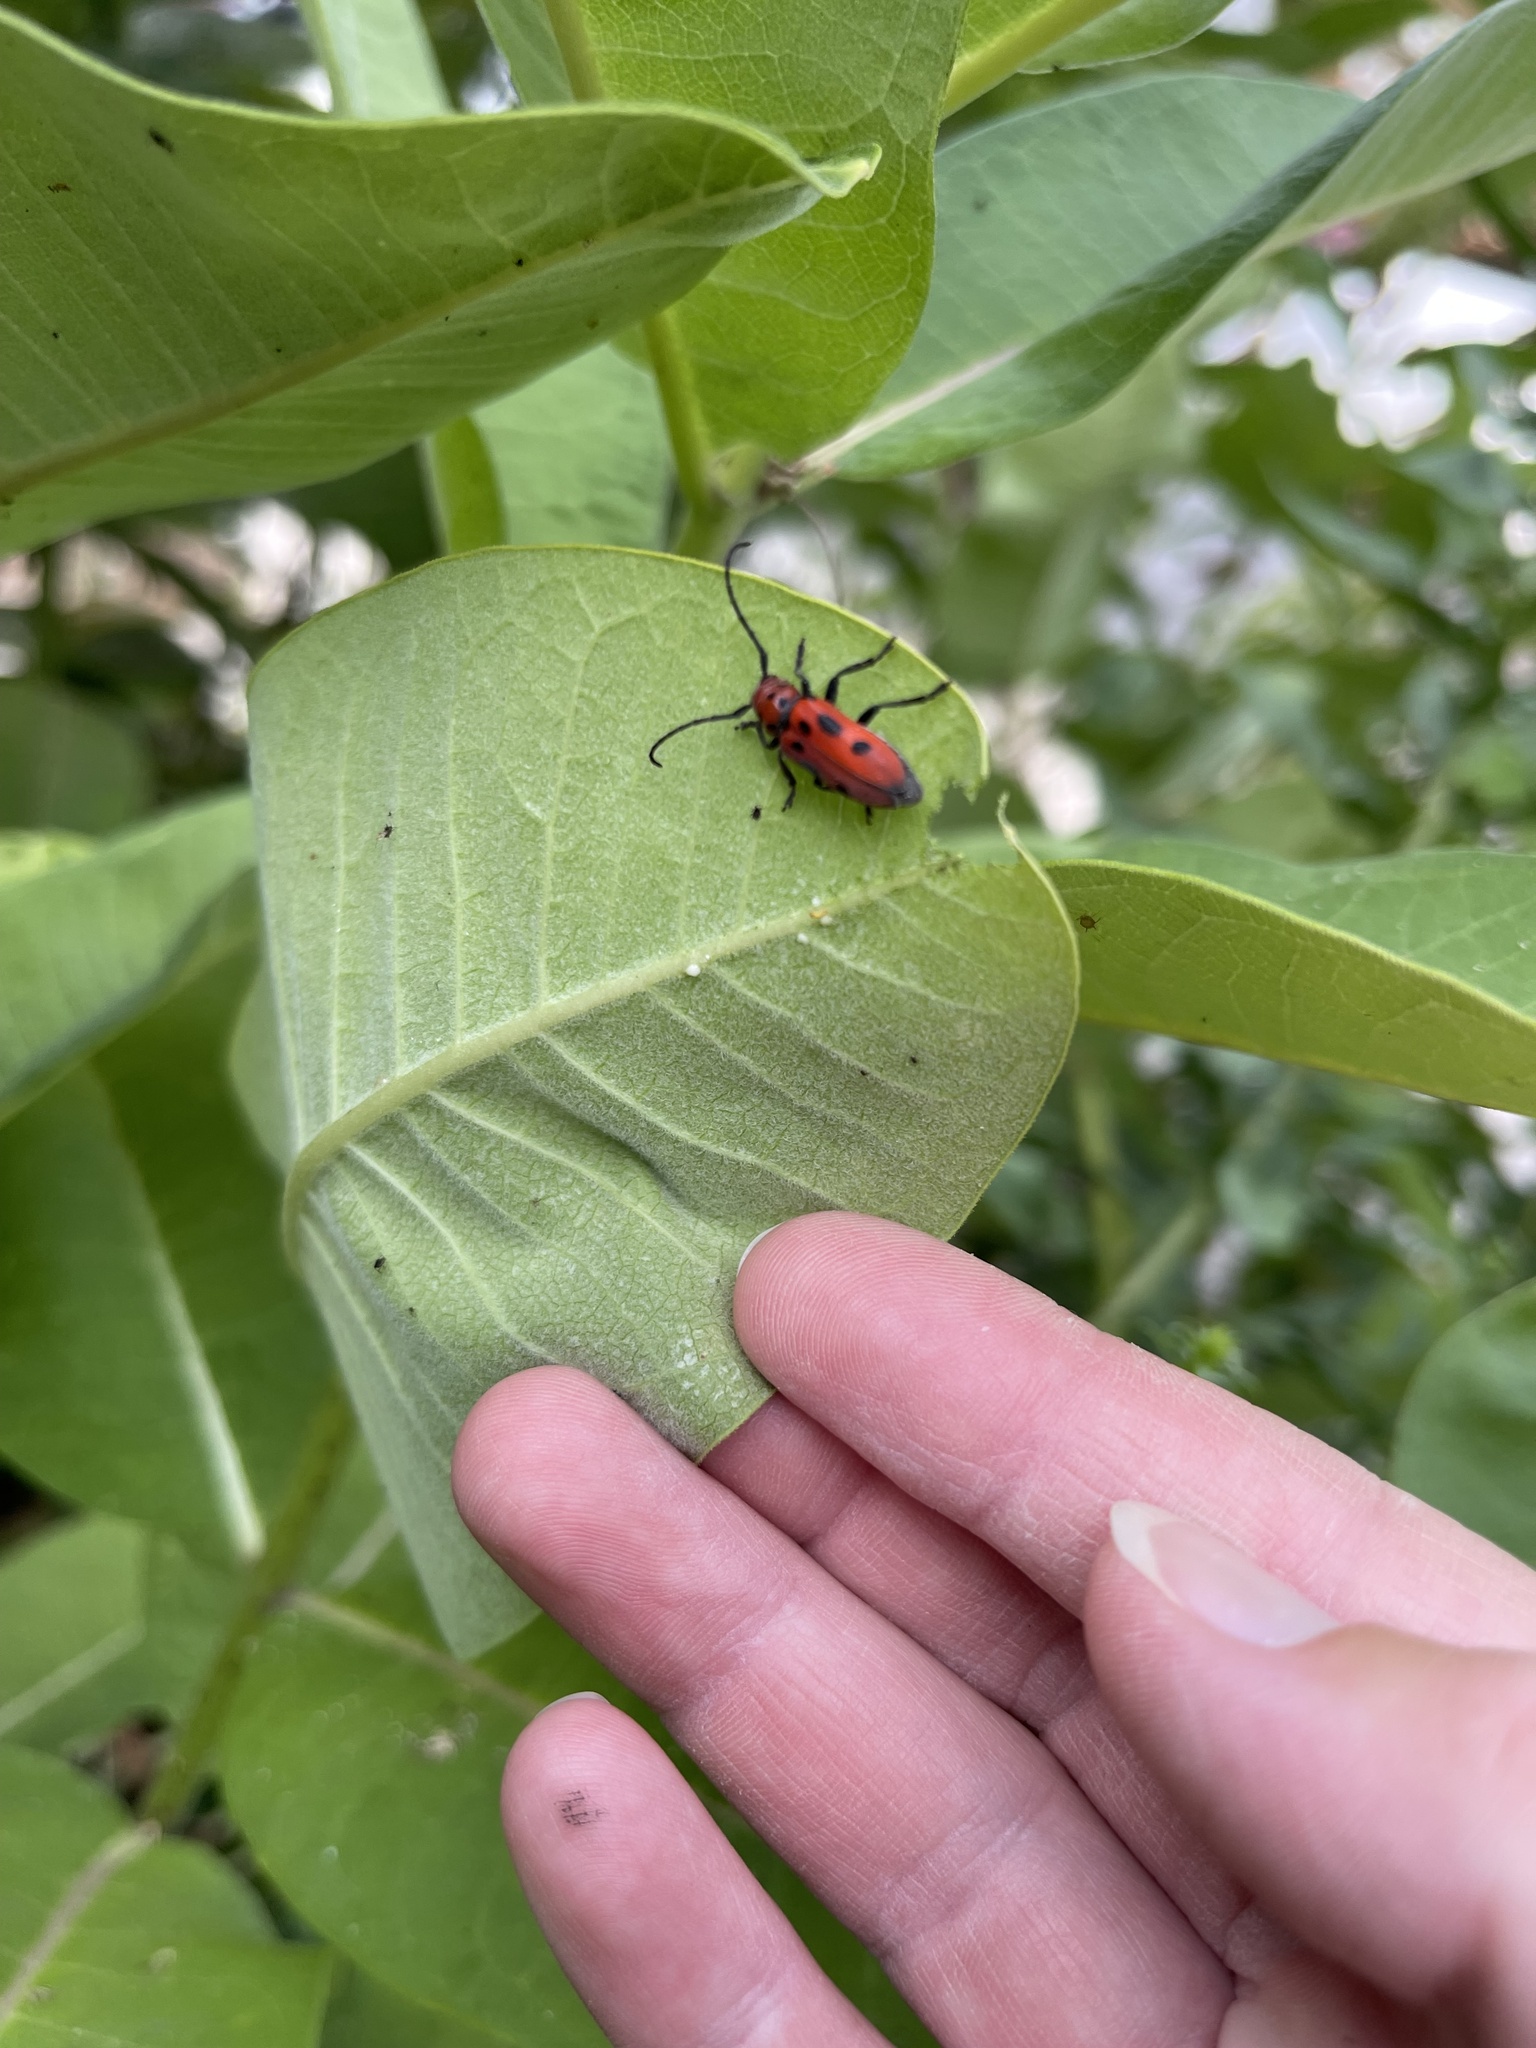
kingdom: Animalia
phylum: Arthropoda
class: Insecta
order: Coleoptera
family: Cerambycidae
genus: Tetraopes
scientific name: Tetraopes tetrophthalmus
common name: Red milkweed beetle
